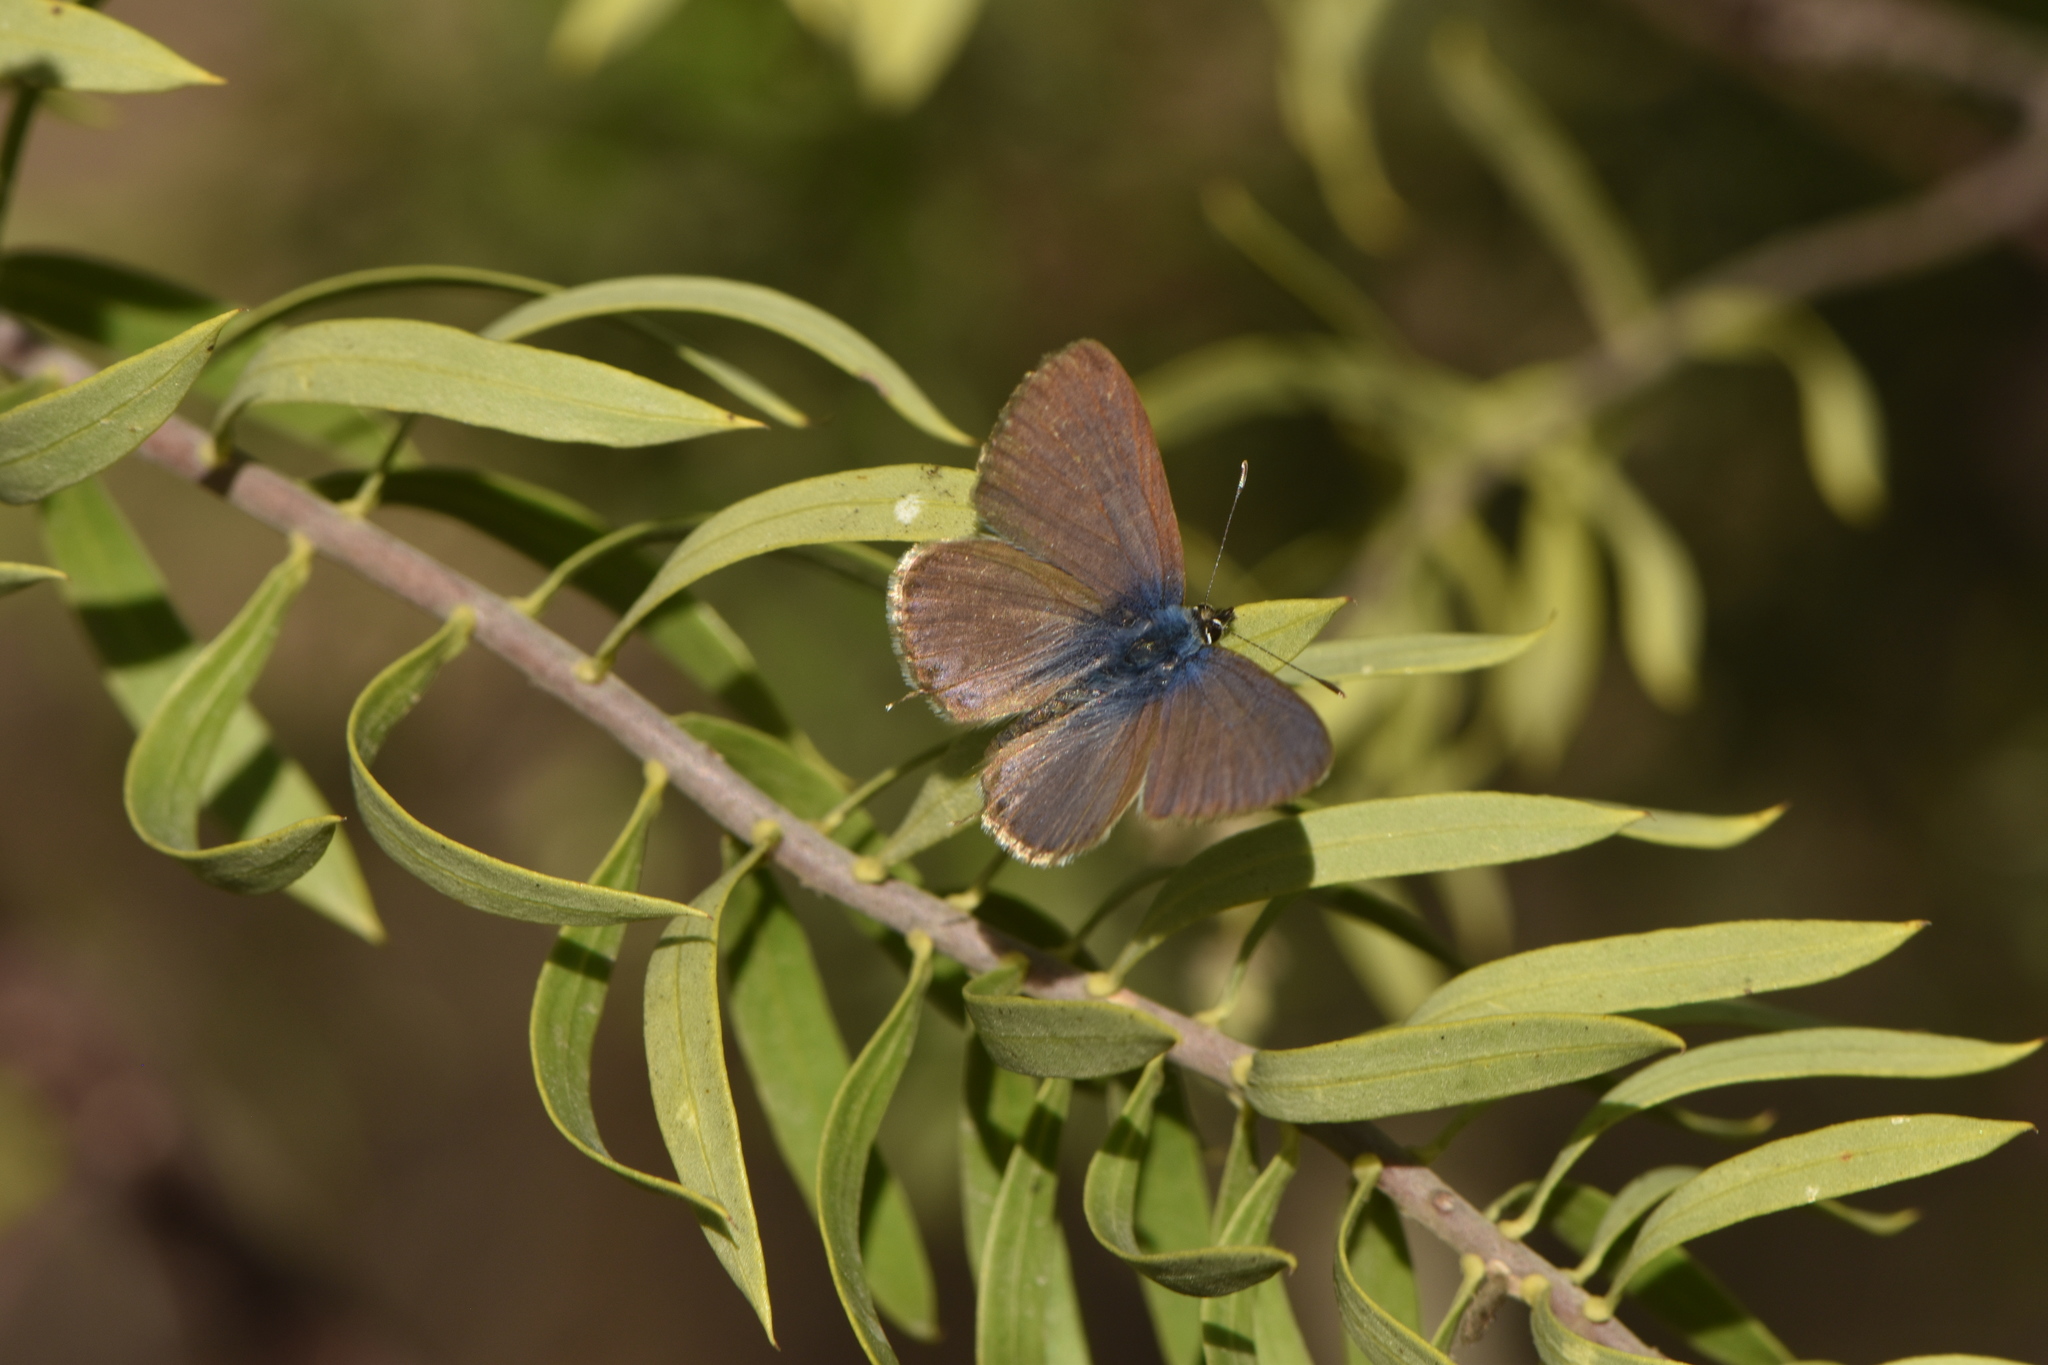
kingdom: Animalia
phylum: Arthropoda
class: Insecta
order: Lepidoptera
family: Lycaenidae
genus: Leptotes
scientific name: Leptotes pirithous
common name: Lang's short-tailed blue
